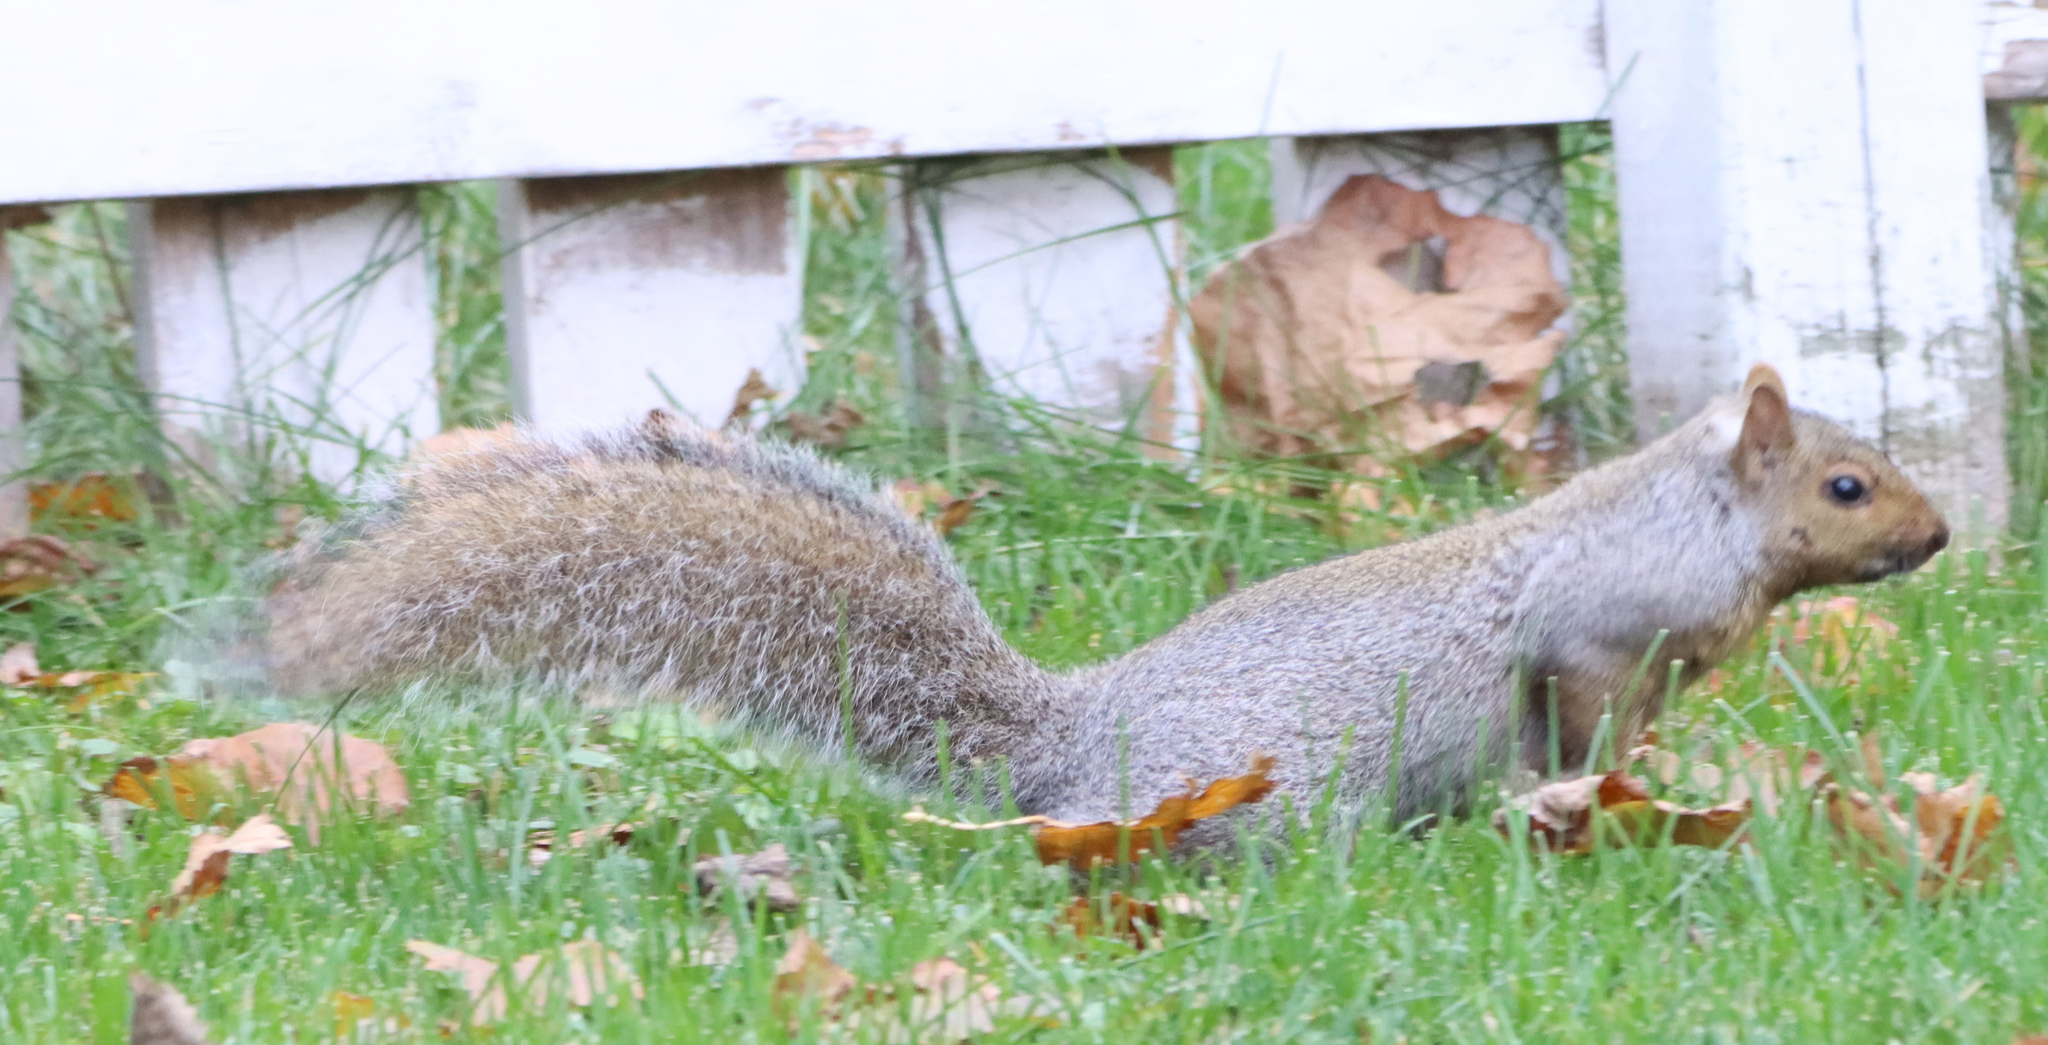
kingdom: Animalia
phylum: Chordata
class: Mammalia
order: Rodentia
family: Sciuridae
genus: Sciurus
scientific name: Sciurus carolinensis
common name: Eastern gray squirrel
